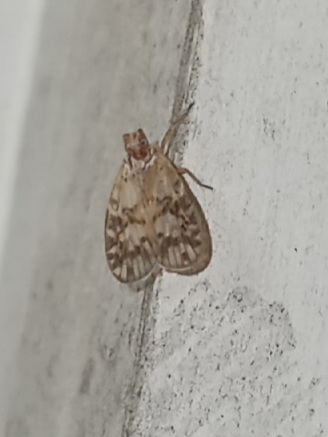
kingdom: Animalia
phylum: Arthropoda
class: Insecta
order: Hemiptera
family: Cixiidae
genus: Bothriocera
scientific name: Bothriocera drakei
